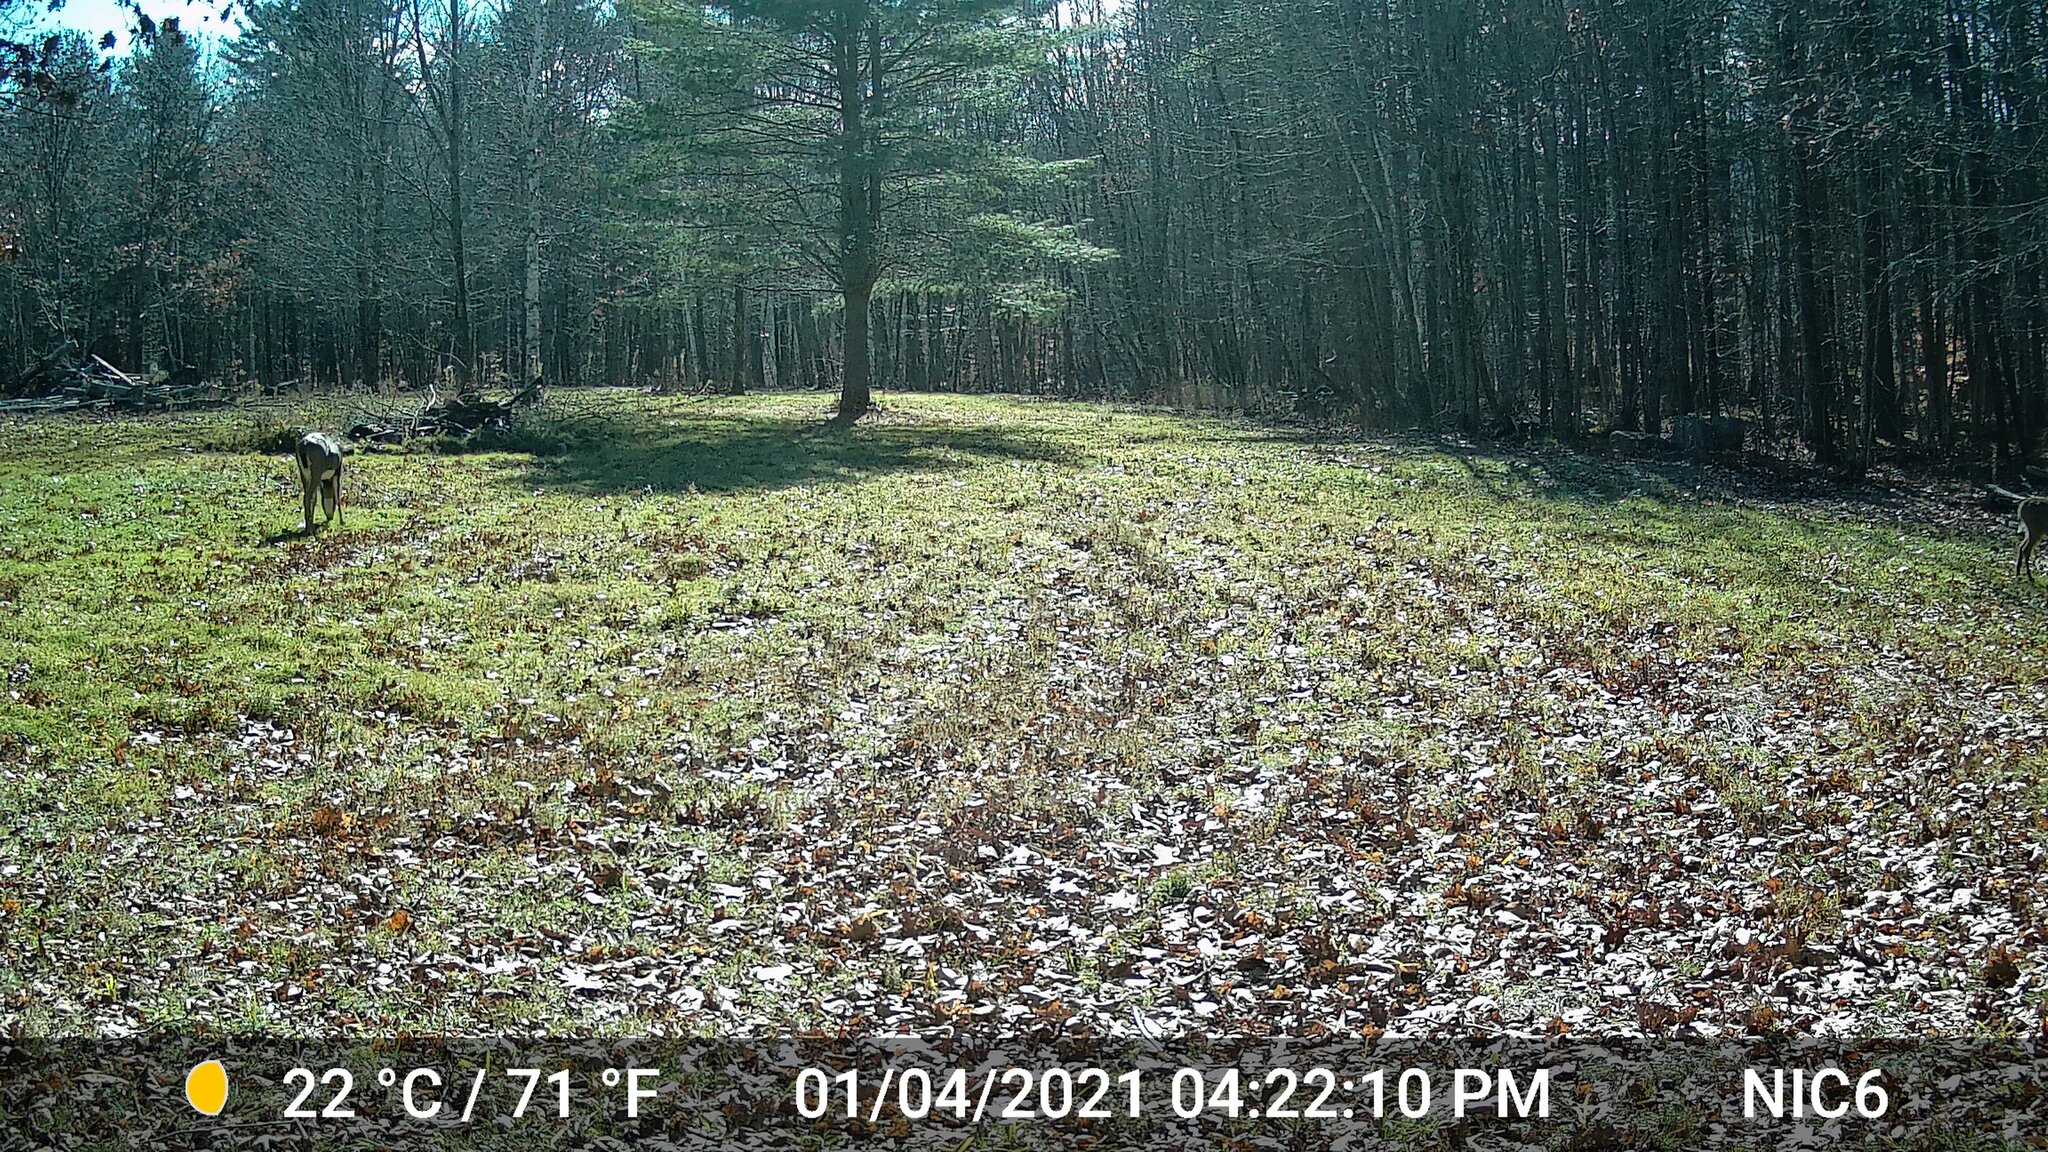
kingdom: Animalia
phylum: Chordata
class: Mammalia
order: Artiodactyla
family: Cervidae
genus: Odocoileus
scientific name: Odocoileus virginianus
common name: White-tailed deer
